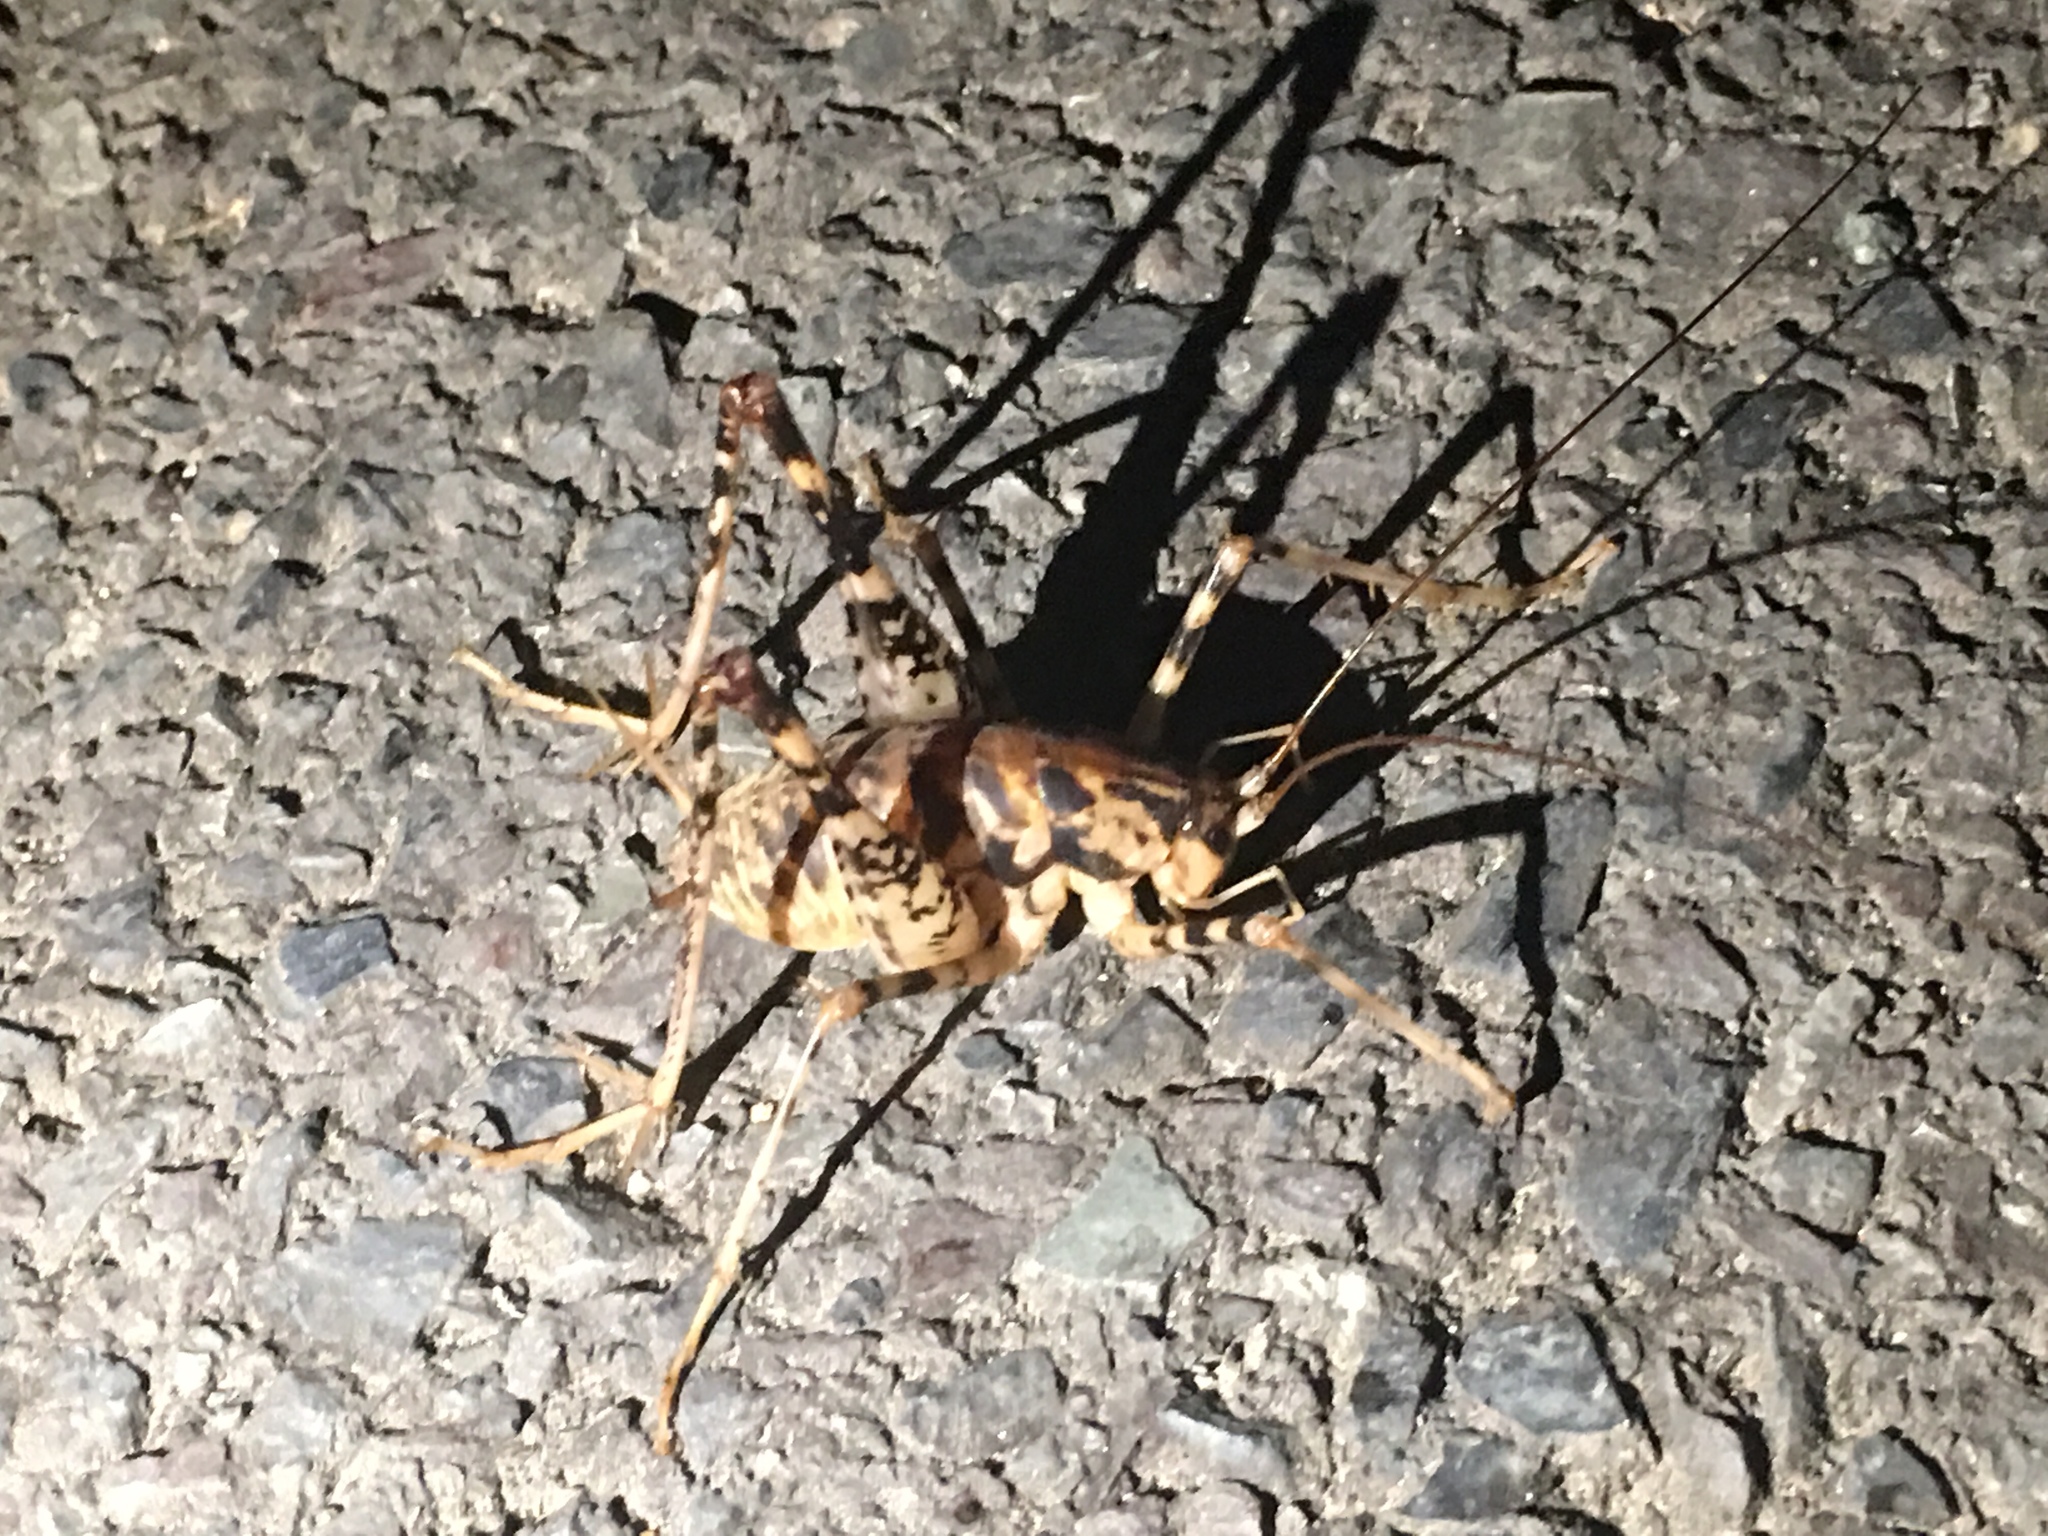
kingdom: Animalia
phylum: Arthropoda
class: Insecta
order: Orthoptera
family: Rhaphidophoridae
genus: Diestrammena
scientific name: Diestrammena japanica
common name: Japanese camel cricket
